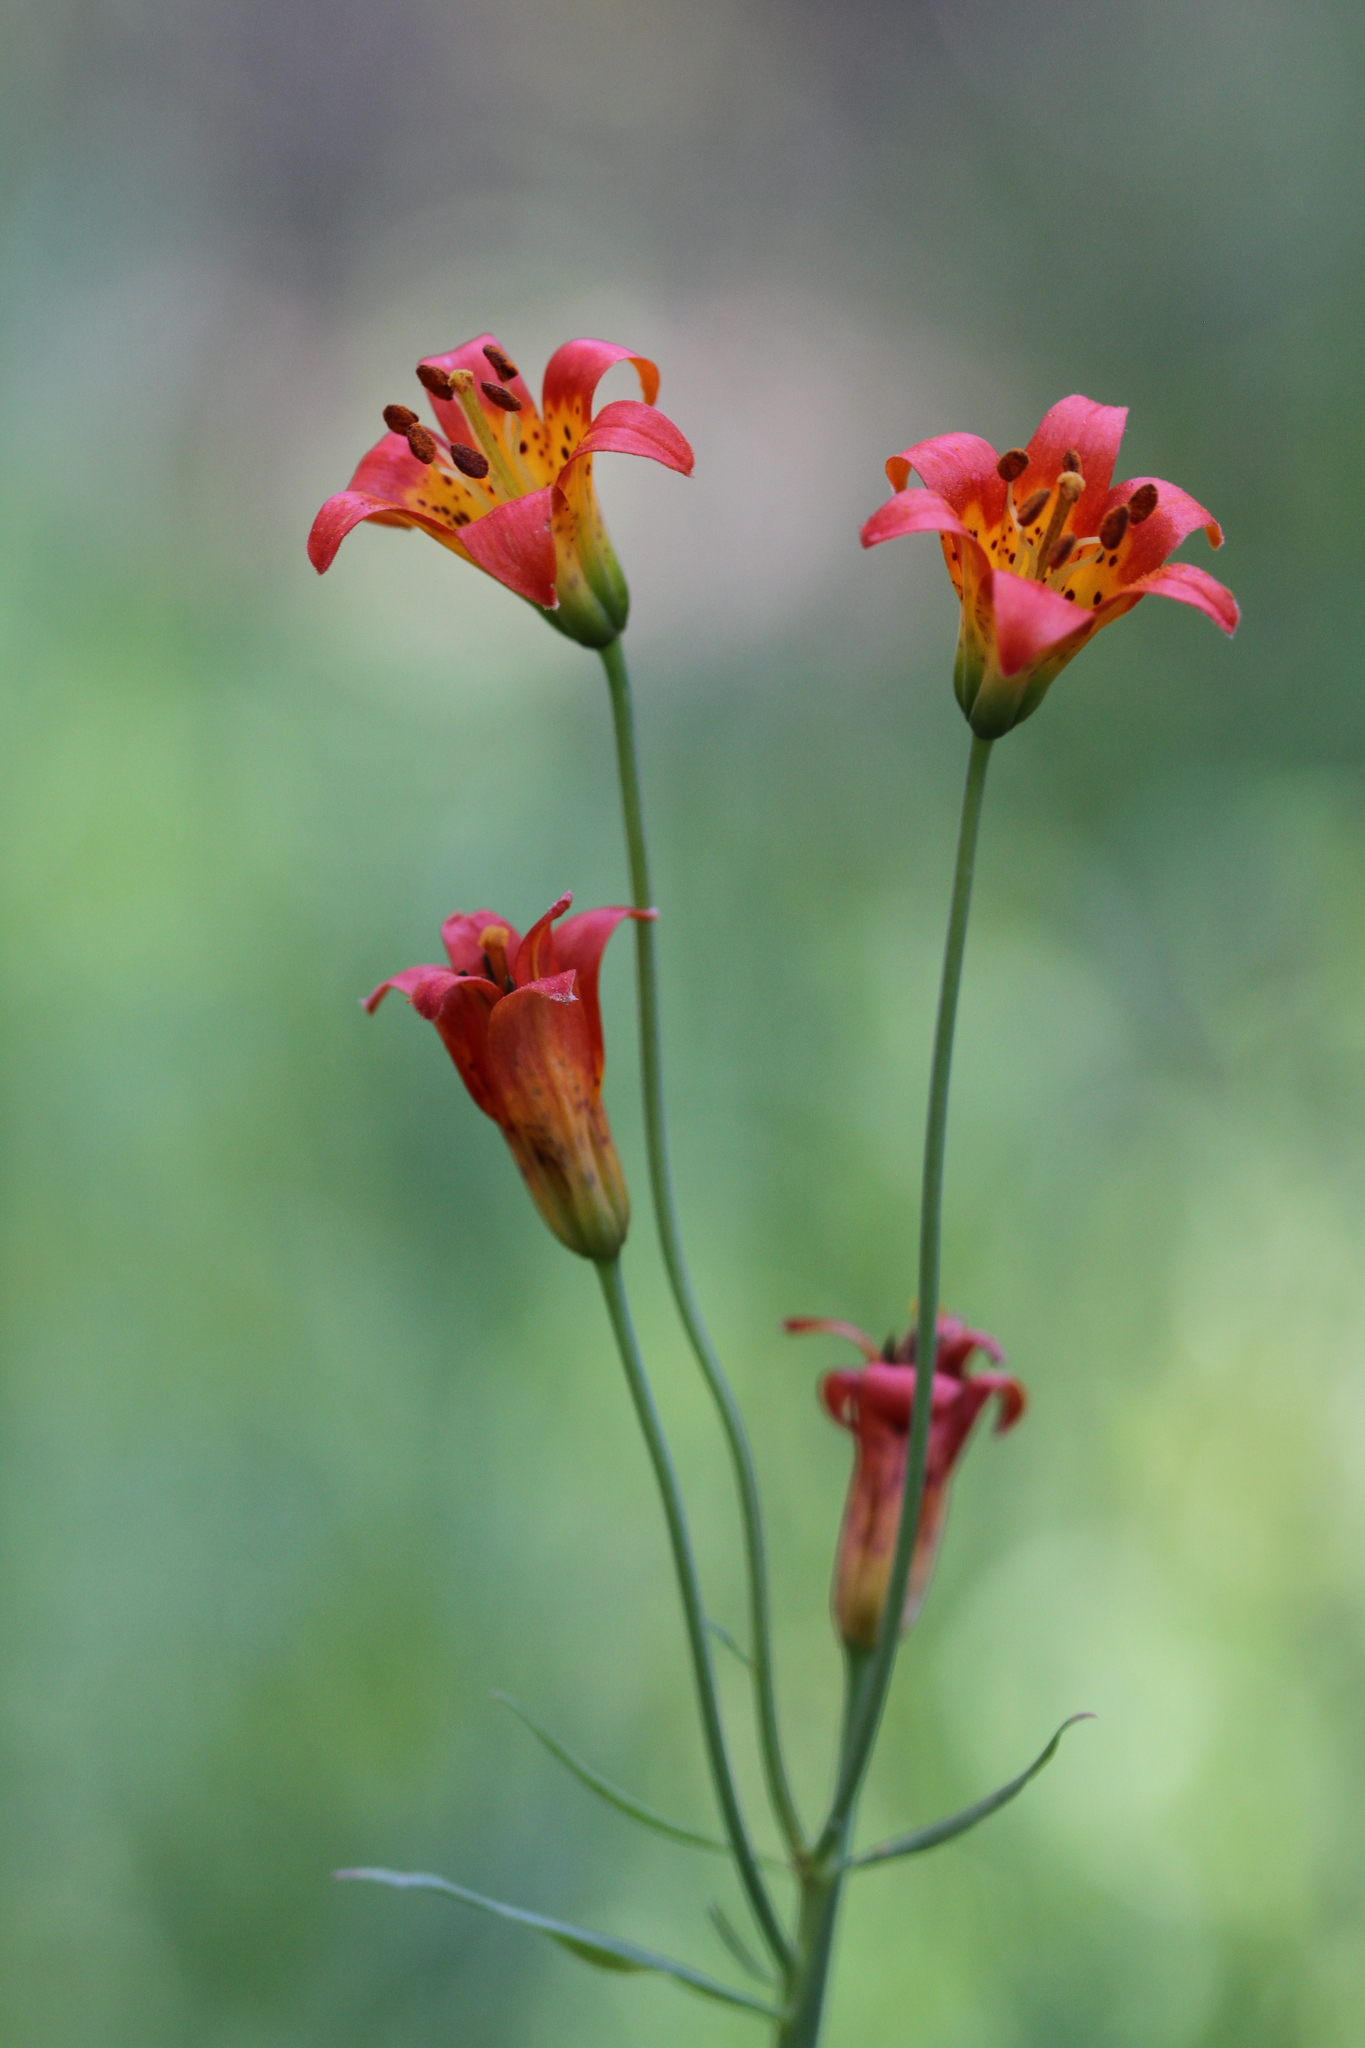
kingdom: Plantae
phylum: Tracheophyta
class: Liliopsida
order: Liliales
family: Liliaceae
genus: Lilium
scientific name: Lilium parvum
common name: Alpine lily
